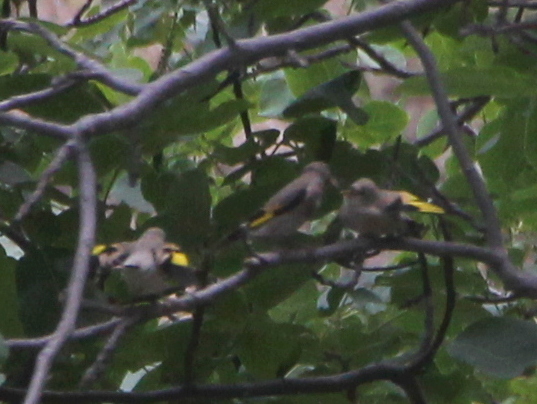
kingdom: Animalia
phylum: Chordata
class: Aves
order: Passeriformes
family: Fringillidae
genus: Carduelis
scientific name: Carduelis carduelis
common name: European goldfinch
